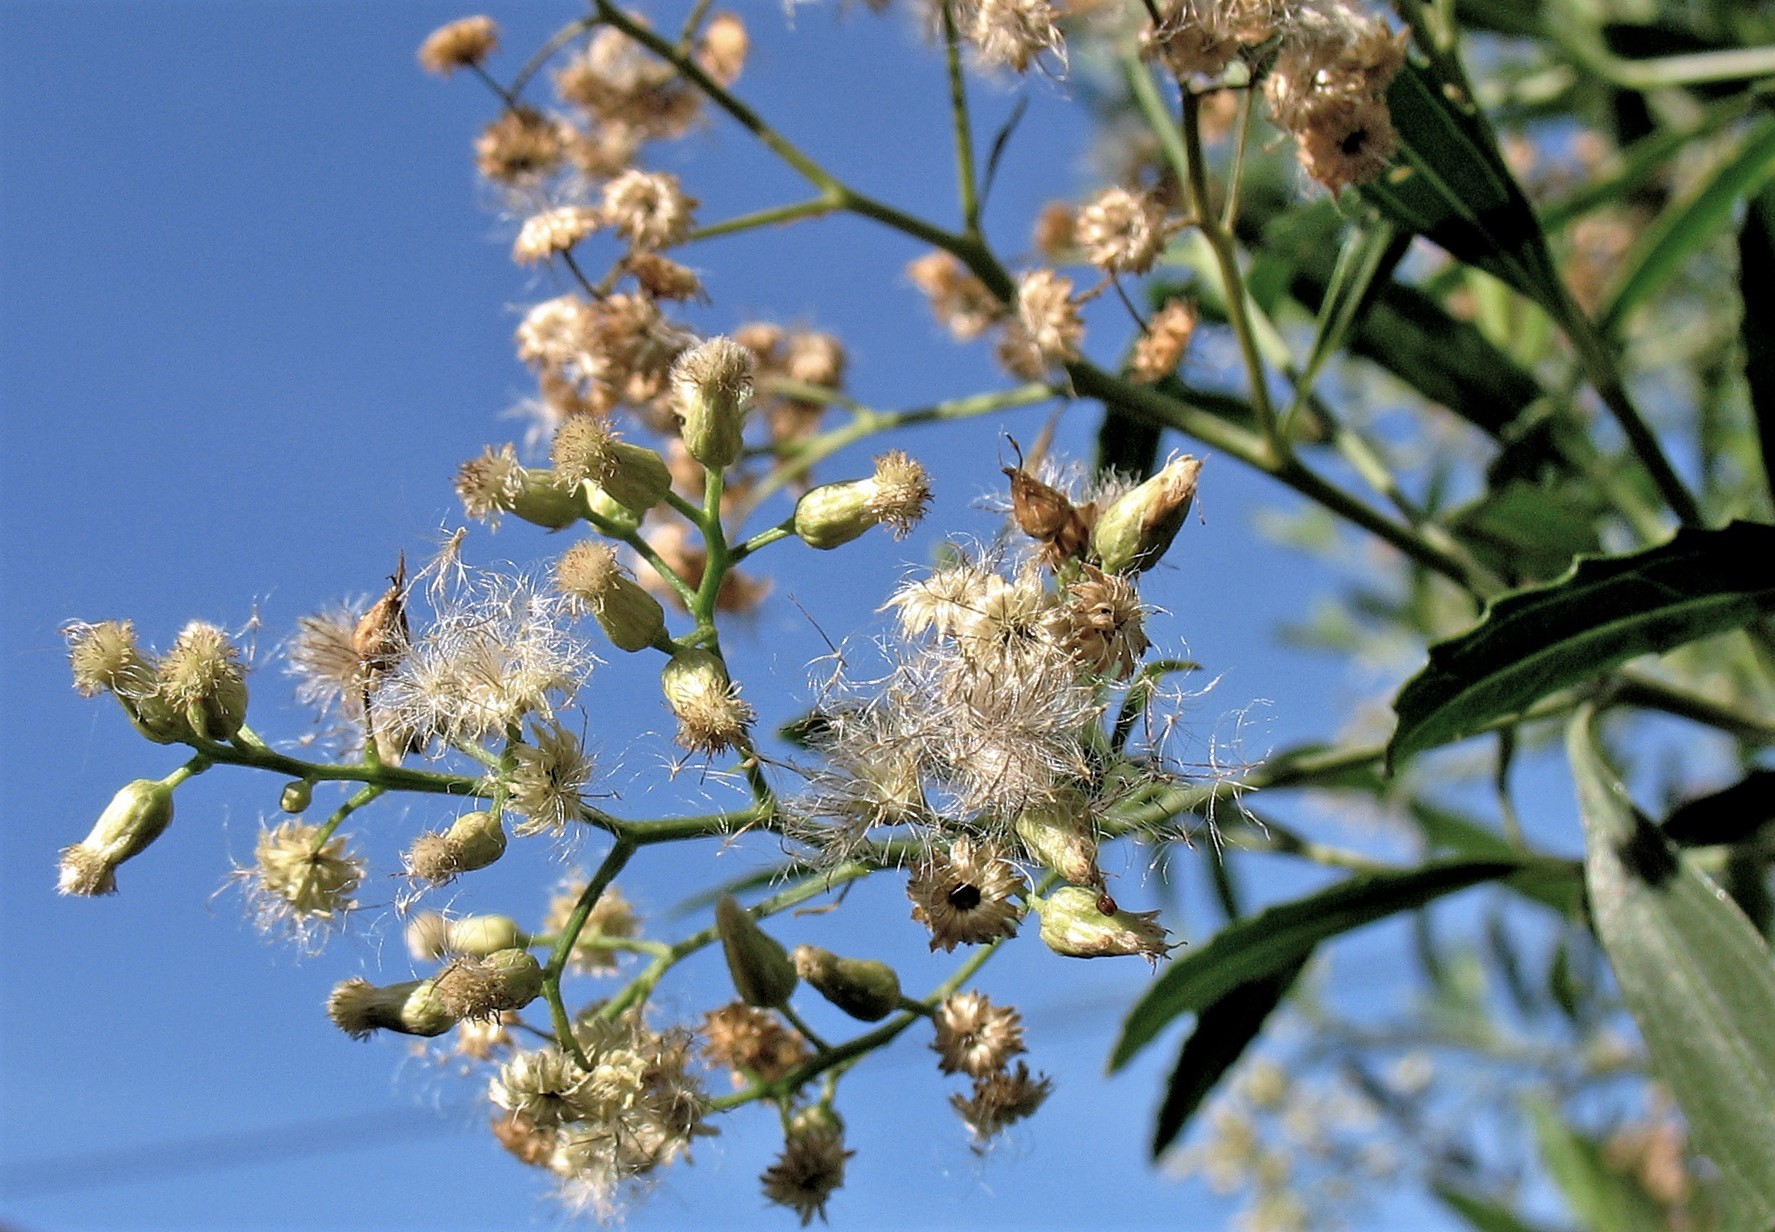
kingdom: Plantae
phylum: Tracheophyta
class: Magnoliopsida
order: Asterales
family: Asteraceae
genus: Baccharis
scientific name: Baccharis salicifolia
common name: Sticky baccharis
